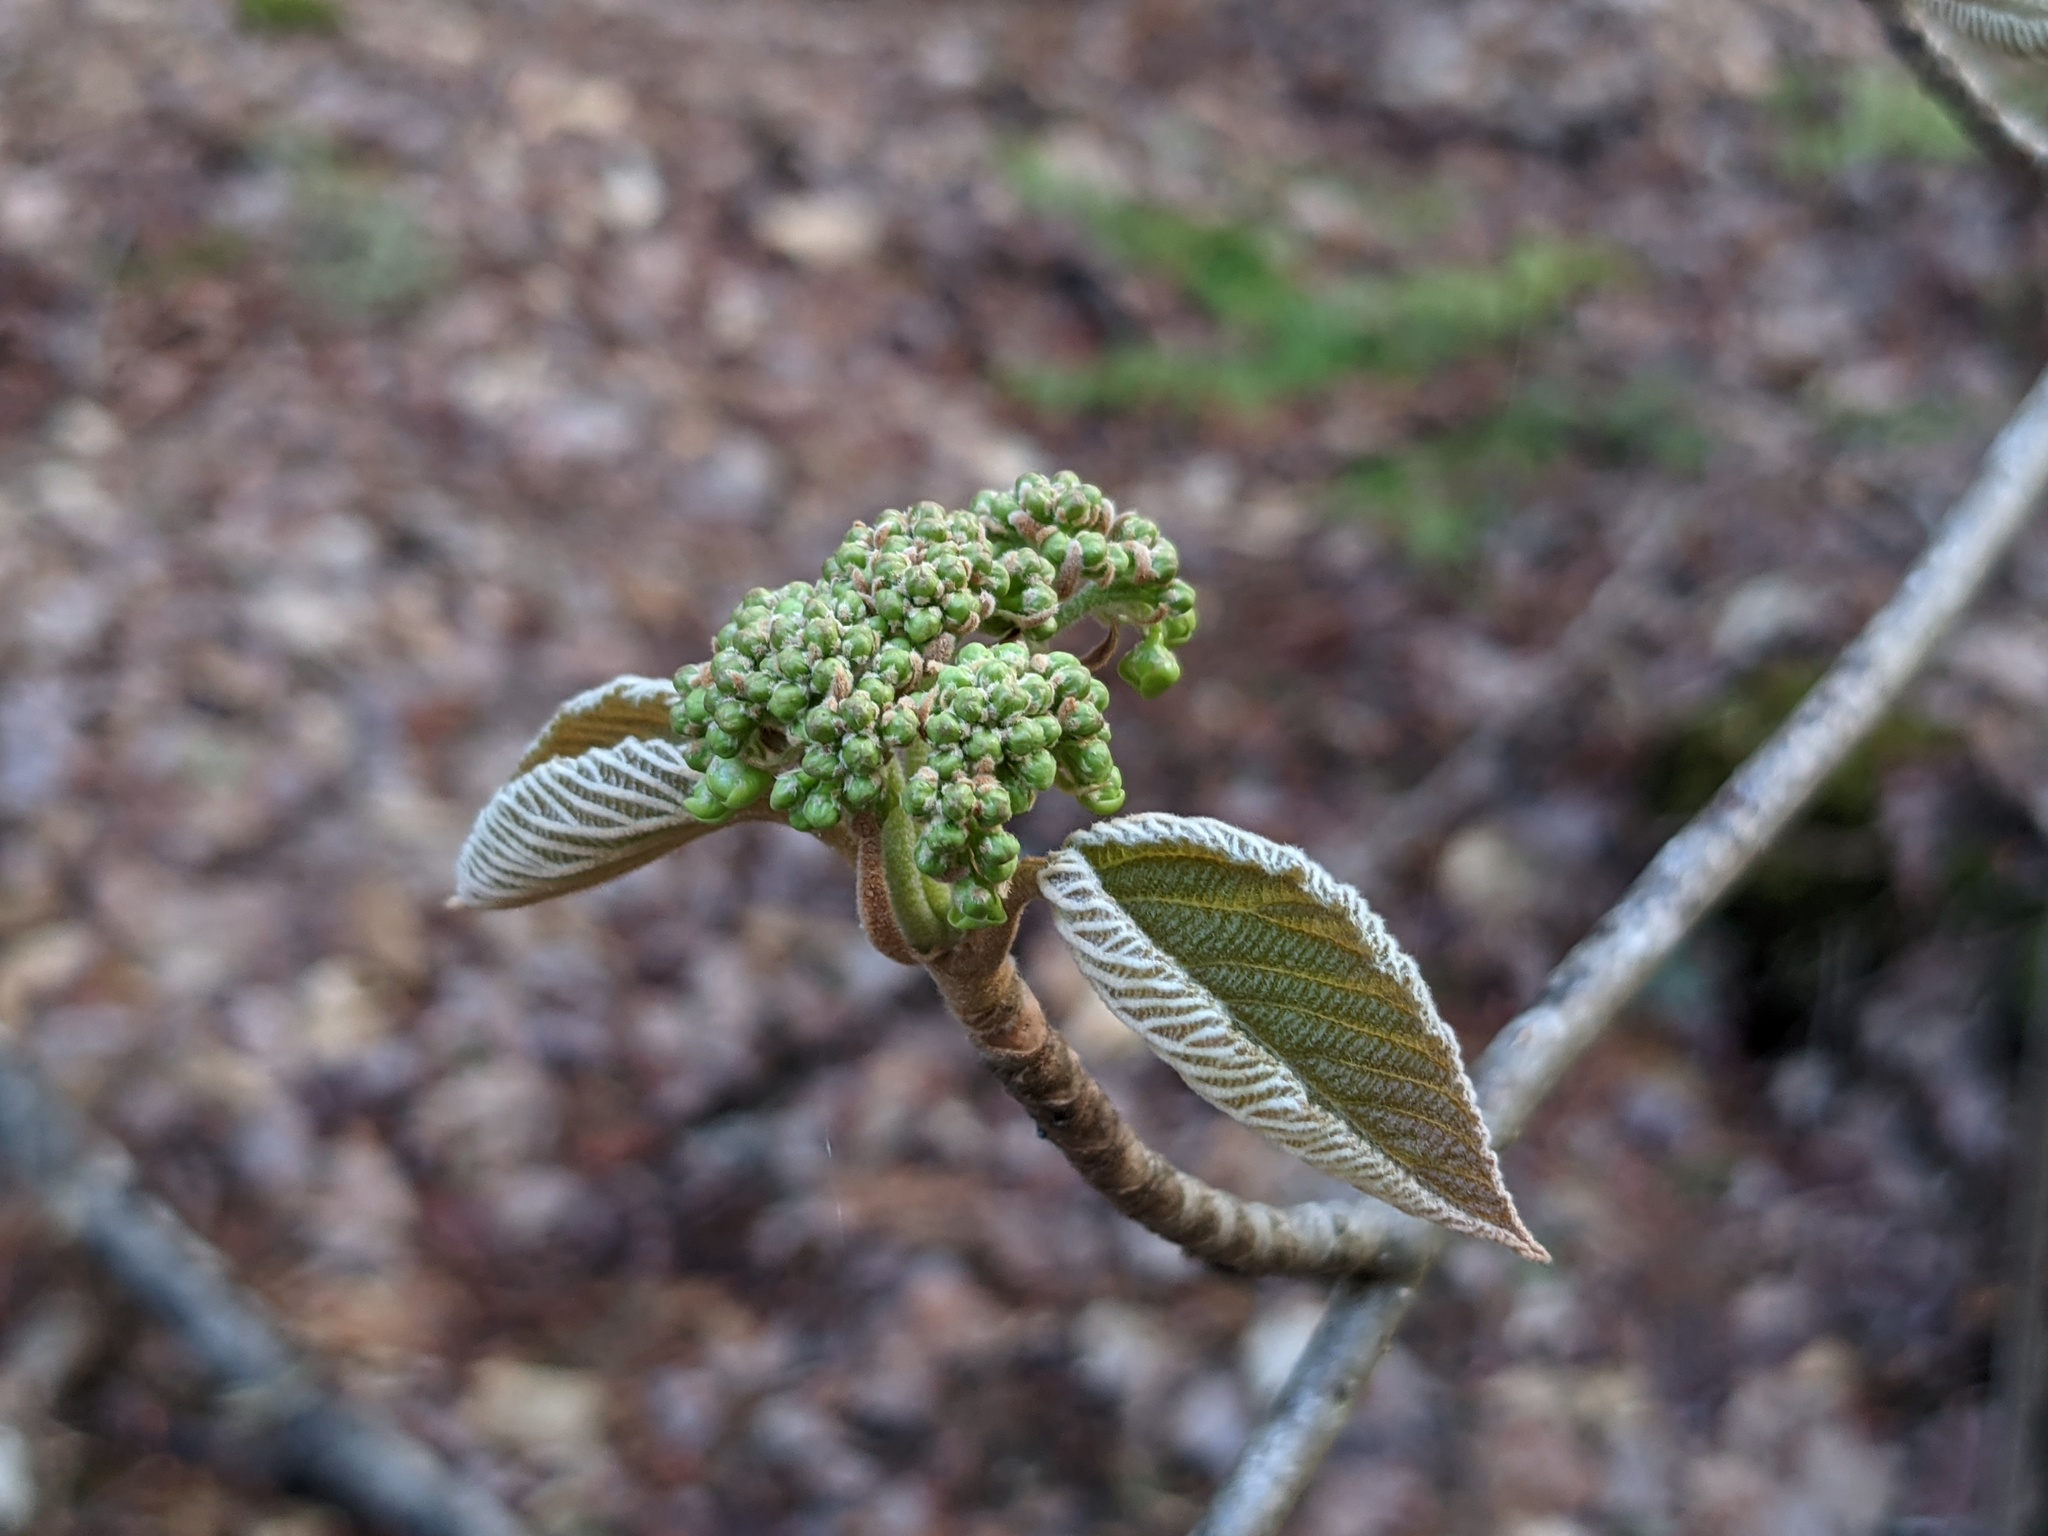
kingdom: Plantae
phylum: Tracheophyta
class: Magnoliopsida
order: Dipsacales
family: Viburnaceae
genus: Viburnum
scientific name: Viburnum lantanoides
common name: Hobblebush
